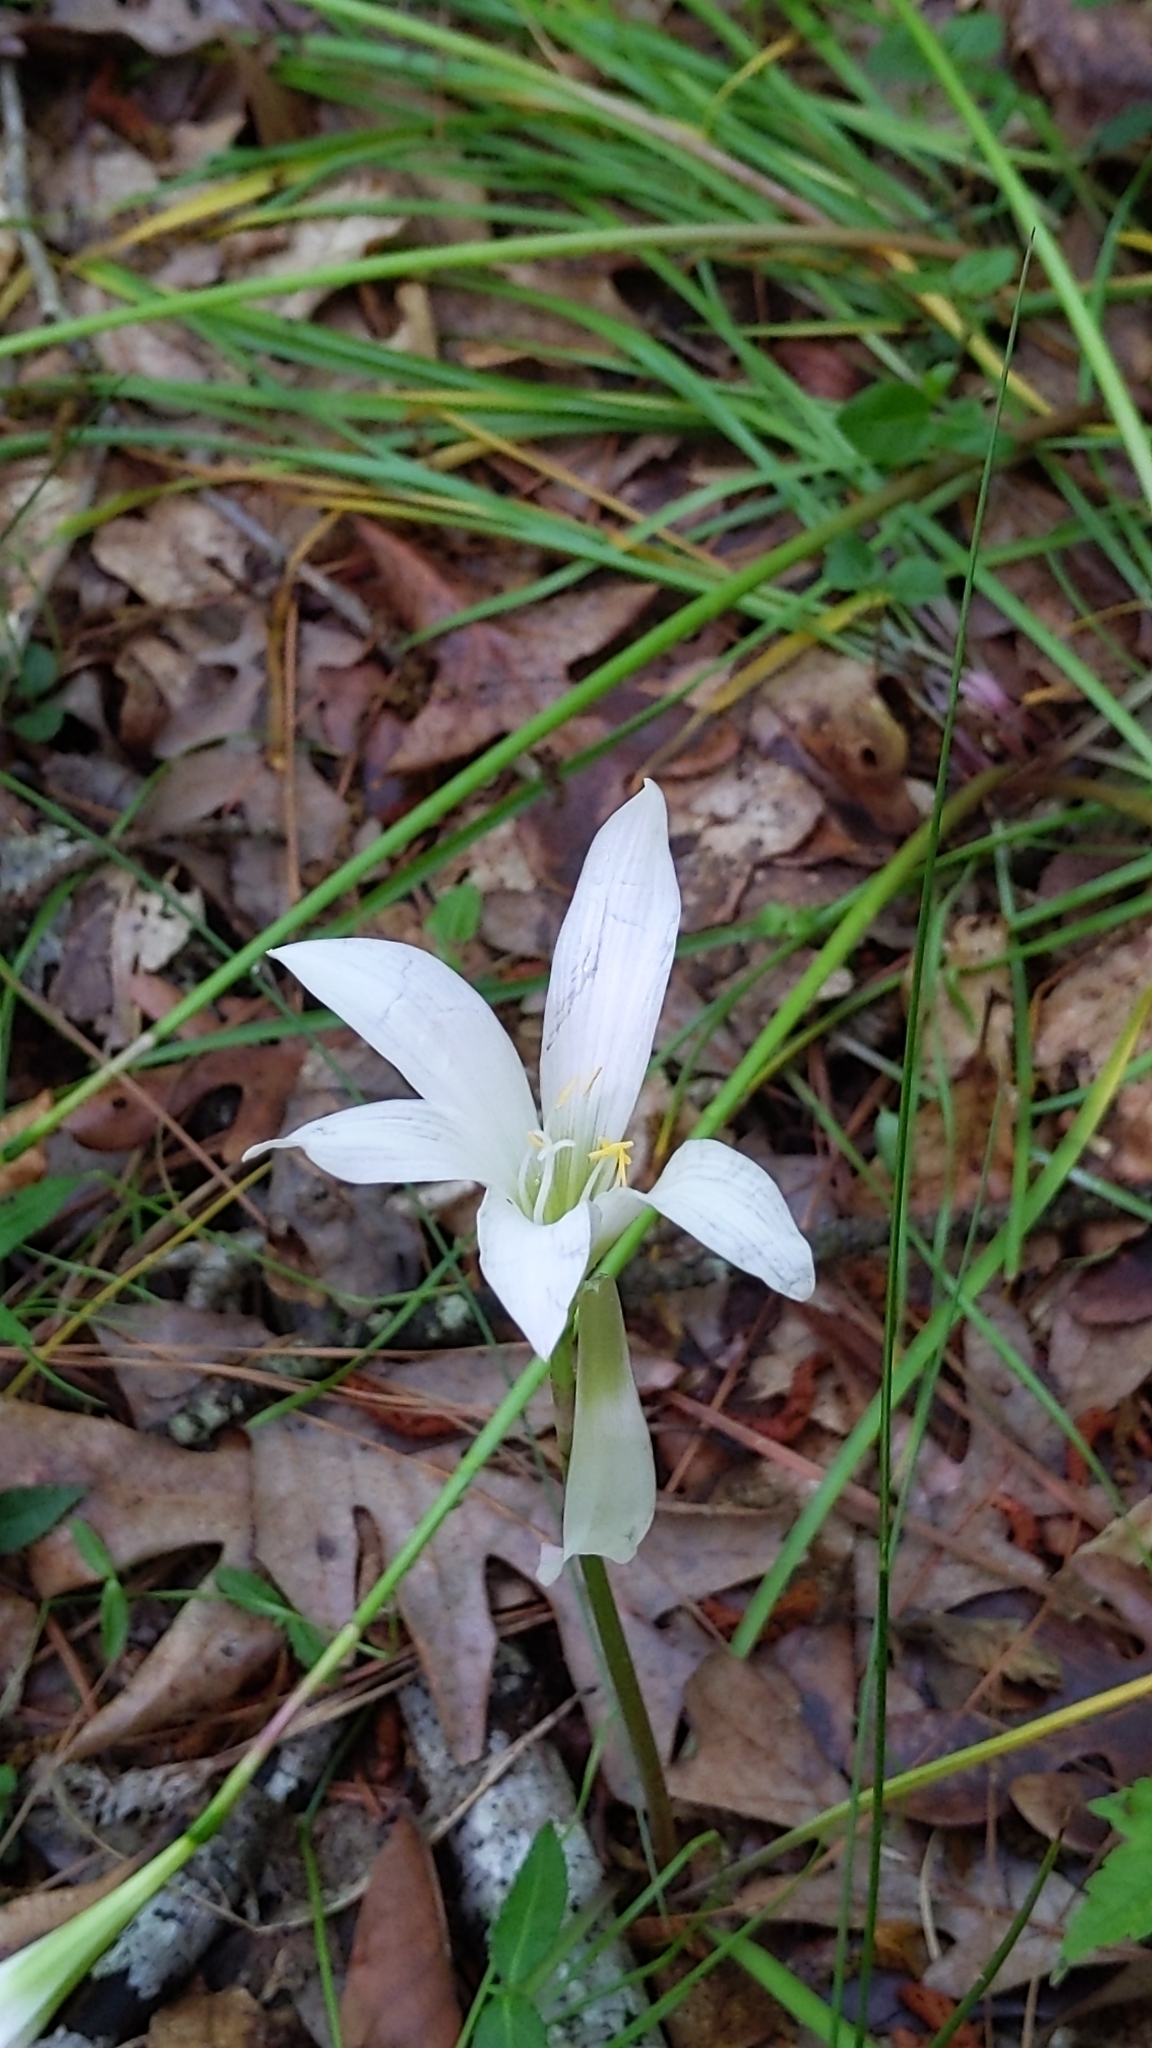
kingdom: Plantae
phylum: Tracheophyta
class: Liliopsida
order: Asparagales
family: Amaryllidaceae
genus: Zephyranthes
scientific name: Zephyranthes atamasco
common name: Atamasco lily
